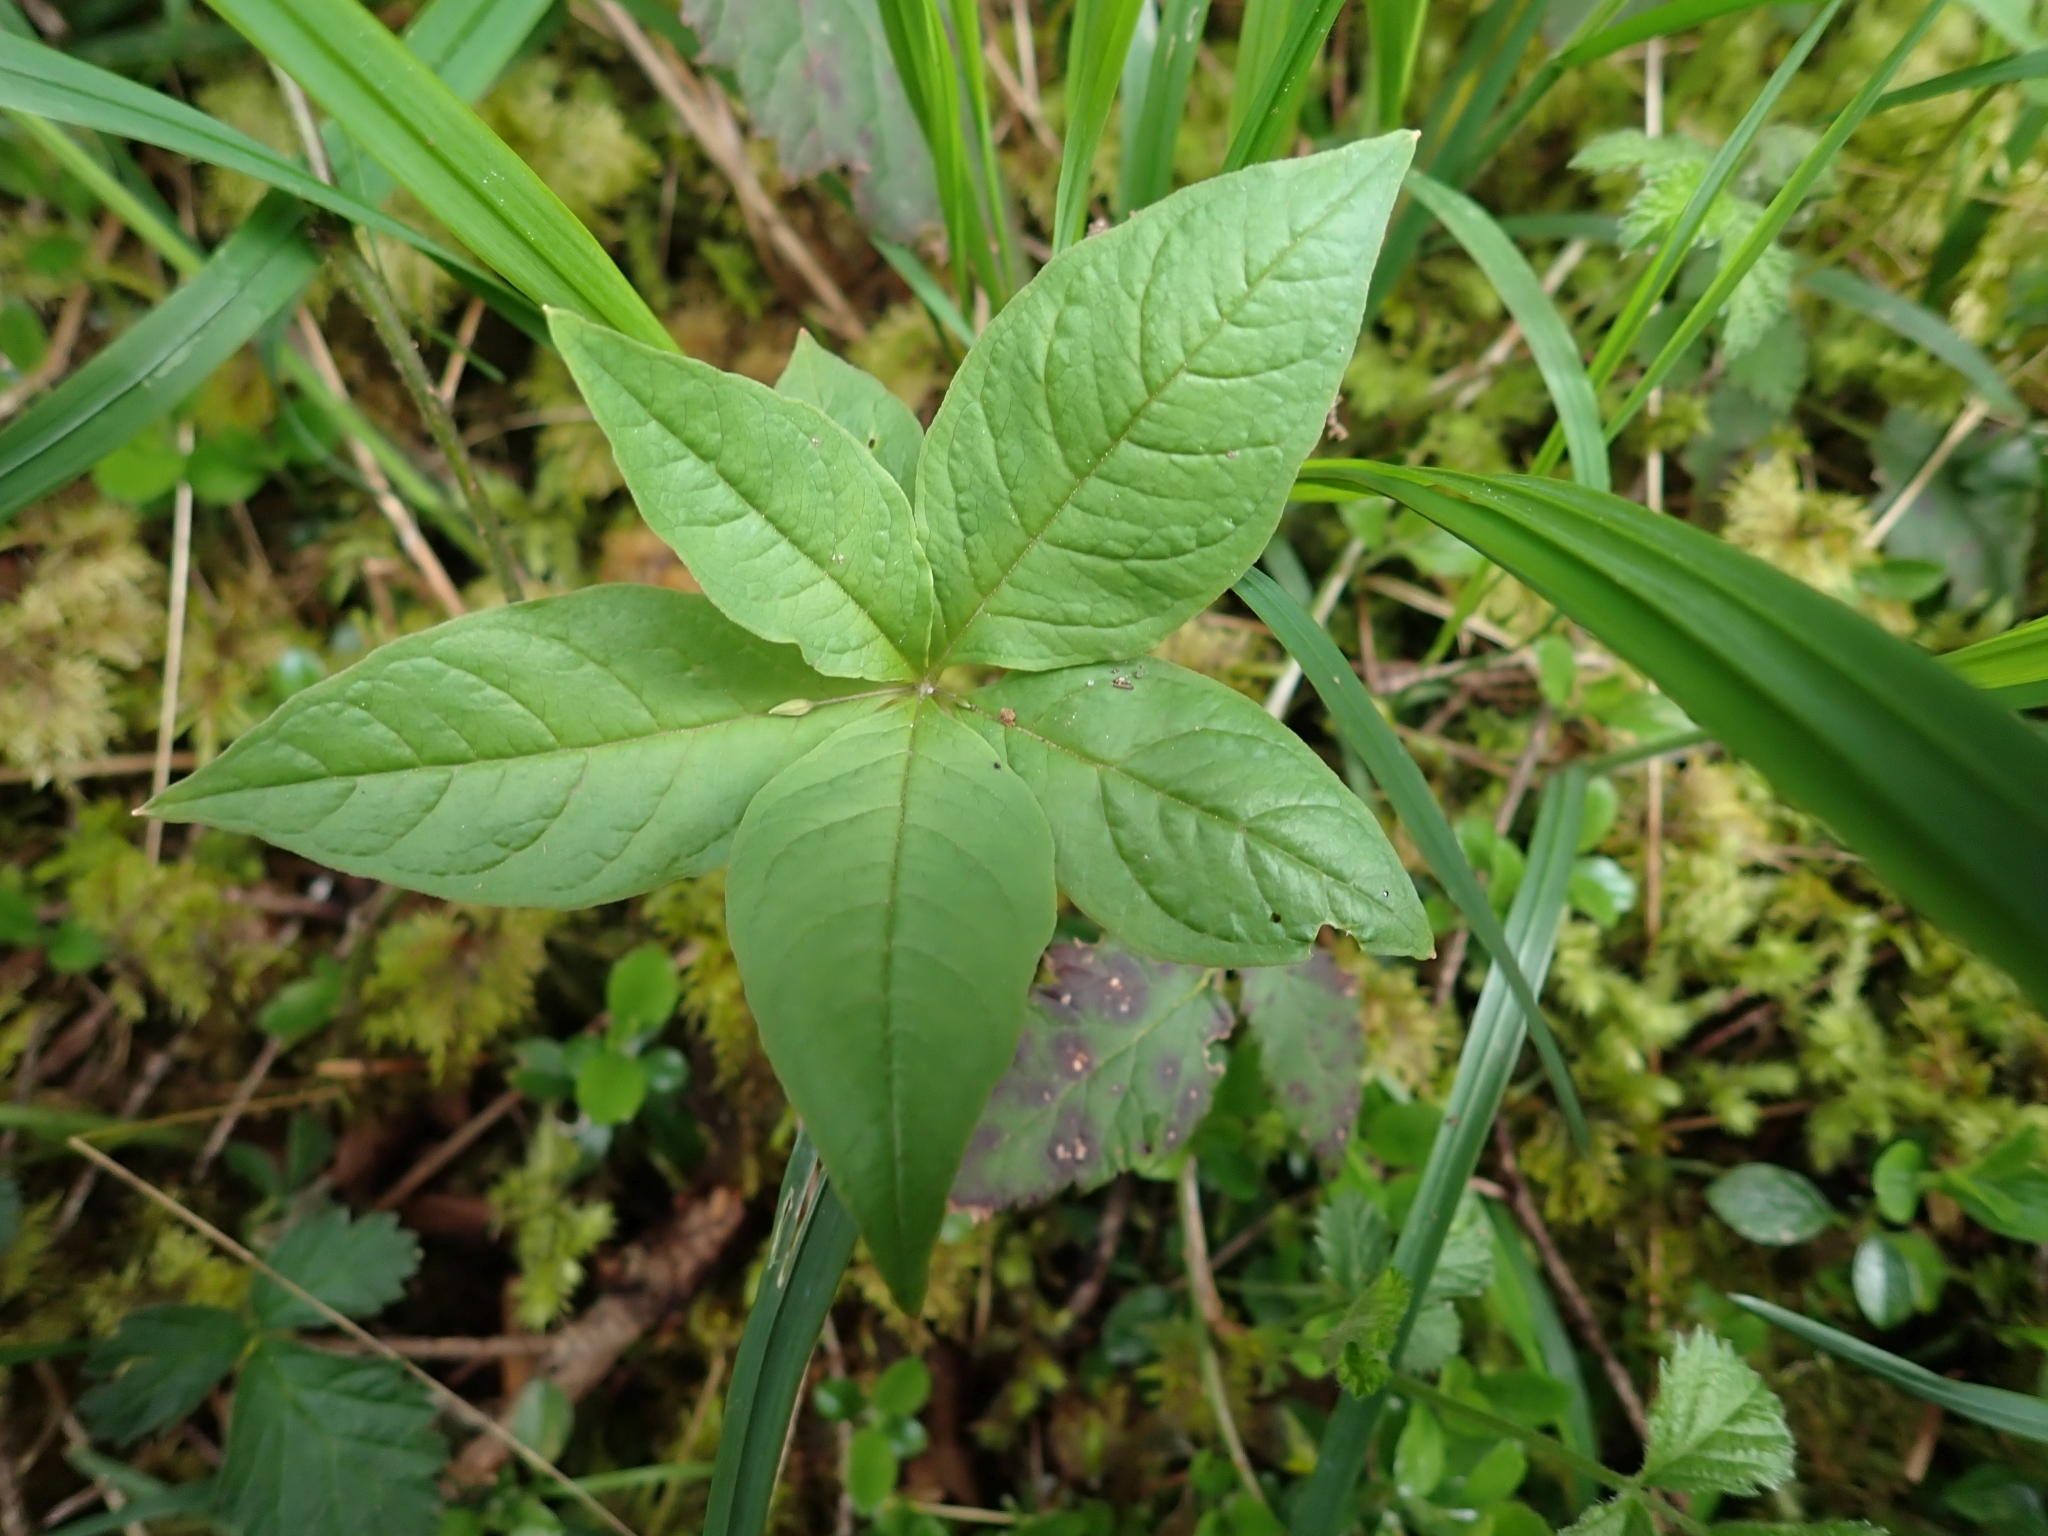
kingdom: Plantae
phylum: Tracheophyta
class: Magnoliopsida
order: Ericales
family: Primulaceae
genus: Lysimachia
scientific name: Lysimachia latifolia
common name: Pacific starflower
